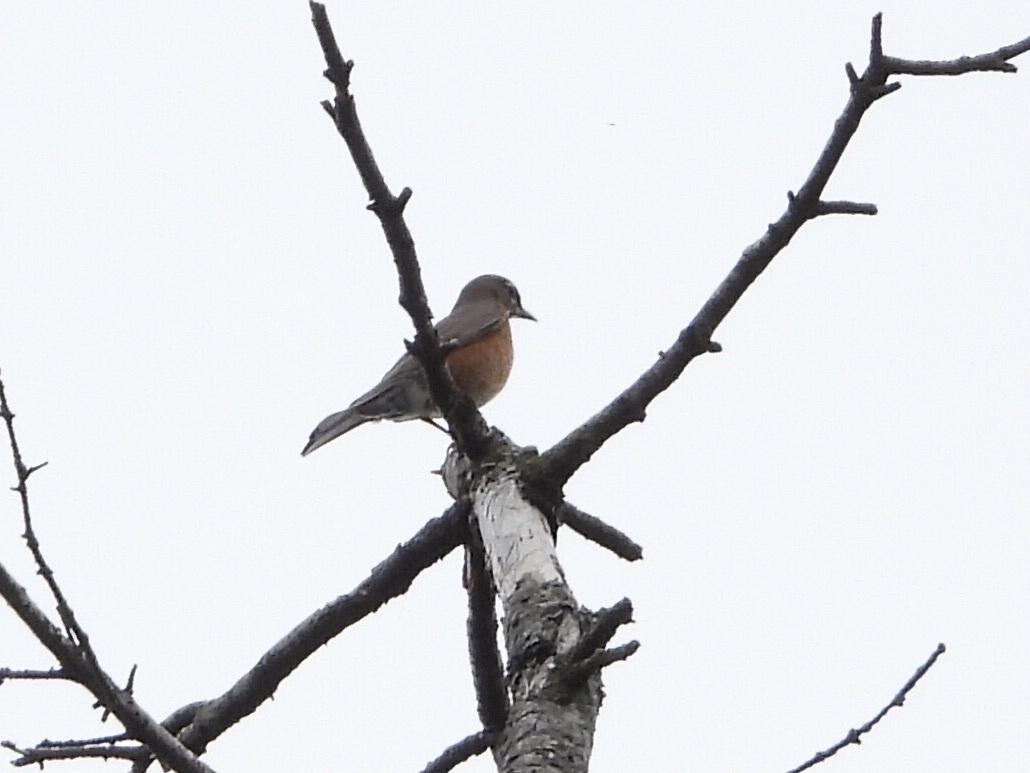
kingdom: Animalia
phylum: Chordata
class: Aves
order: Passeriformes
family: Turdidae
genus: Turdus
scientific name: Turdus migratorius
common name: American robin
